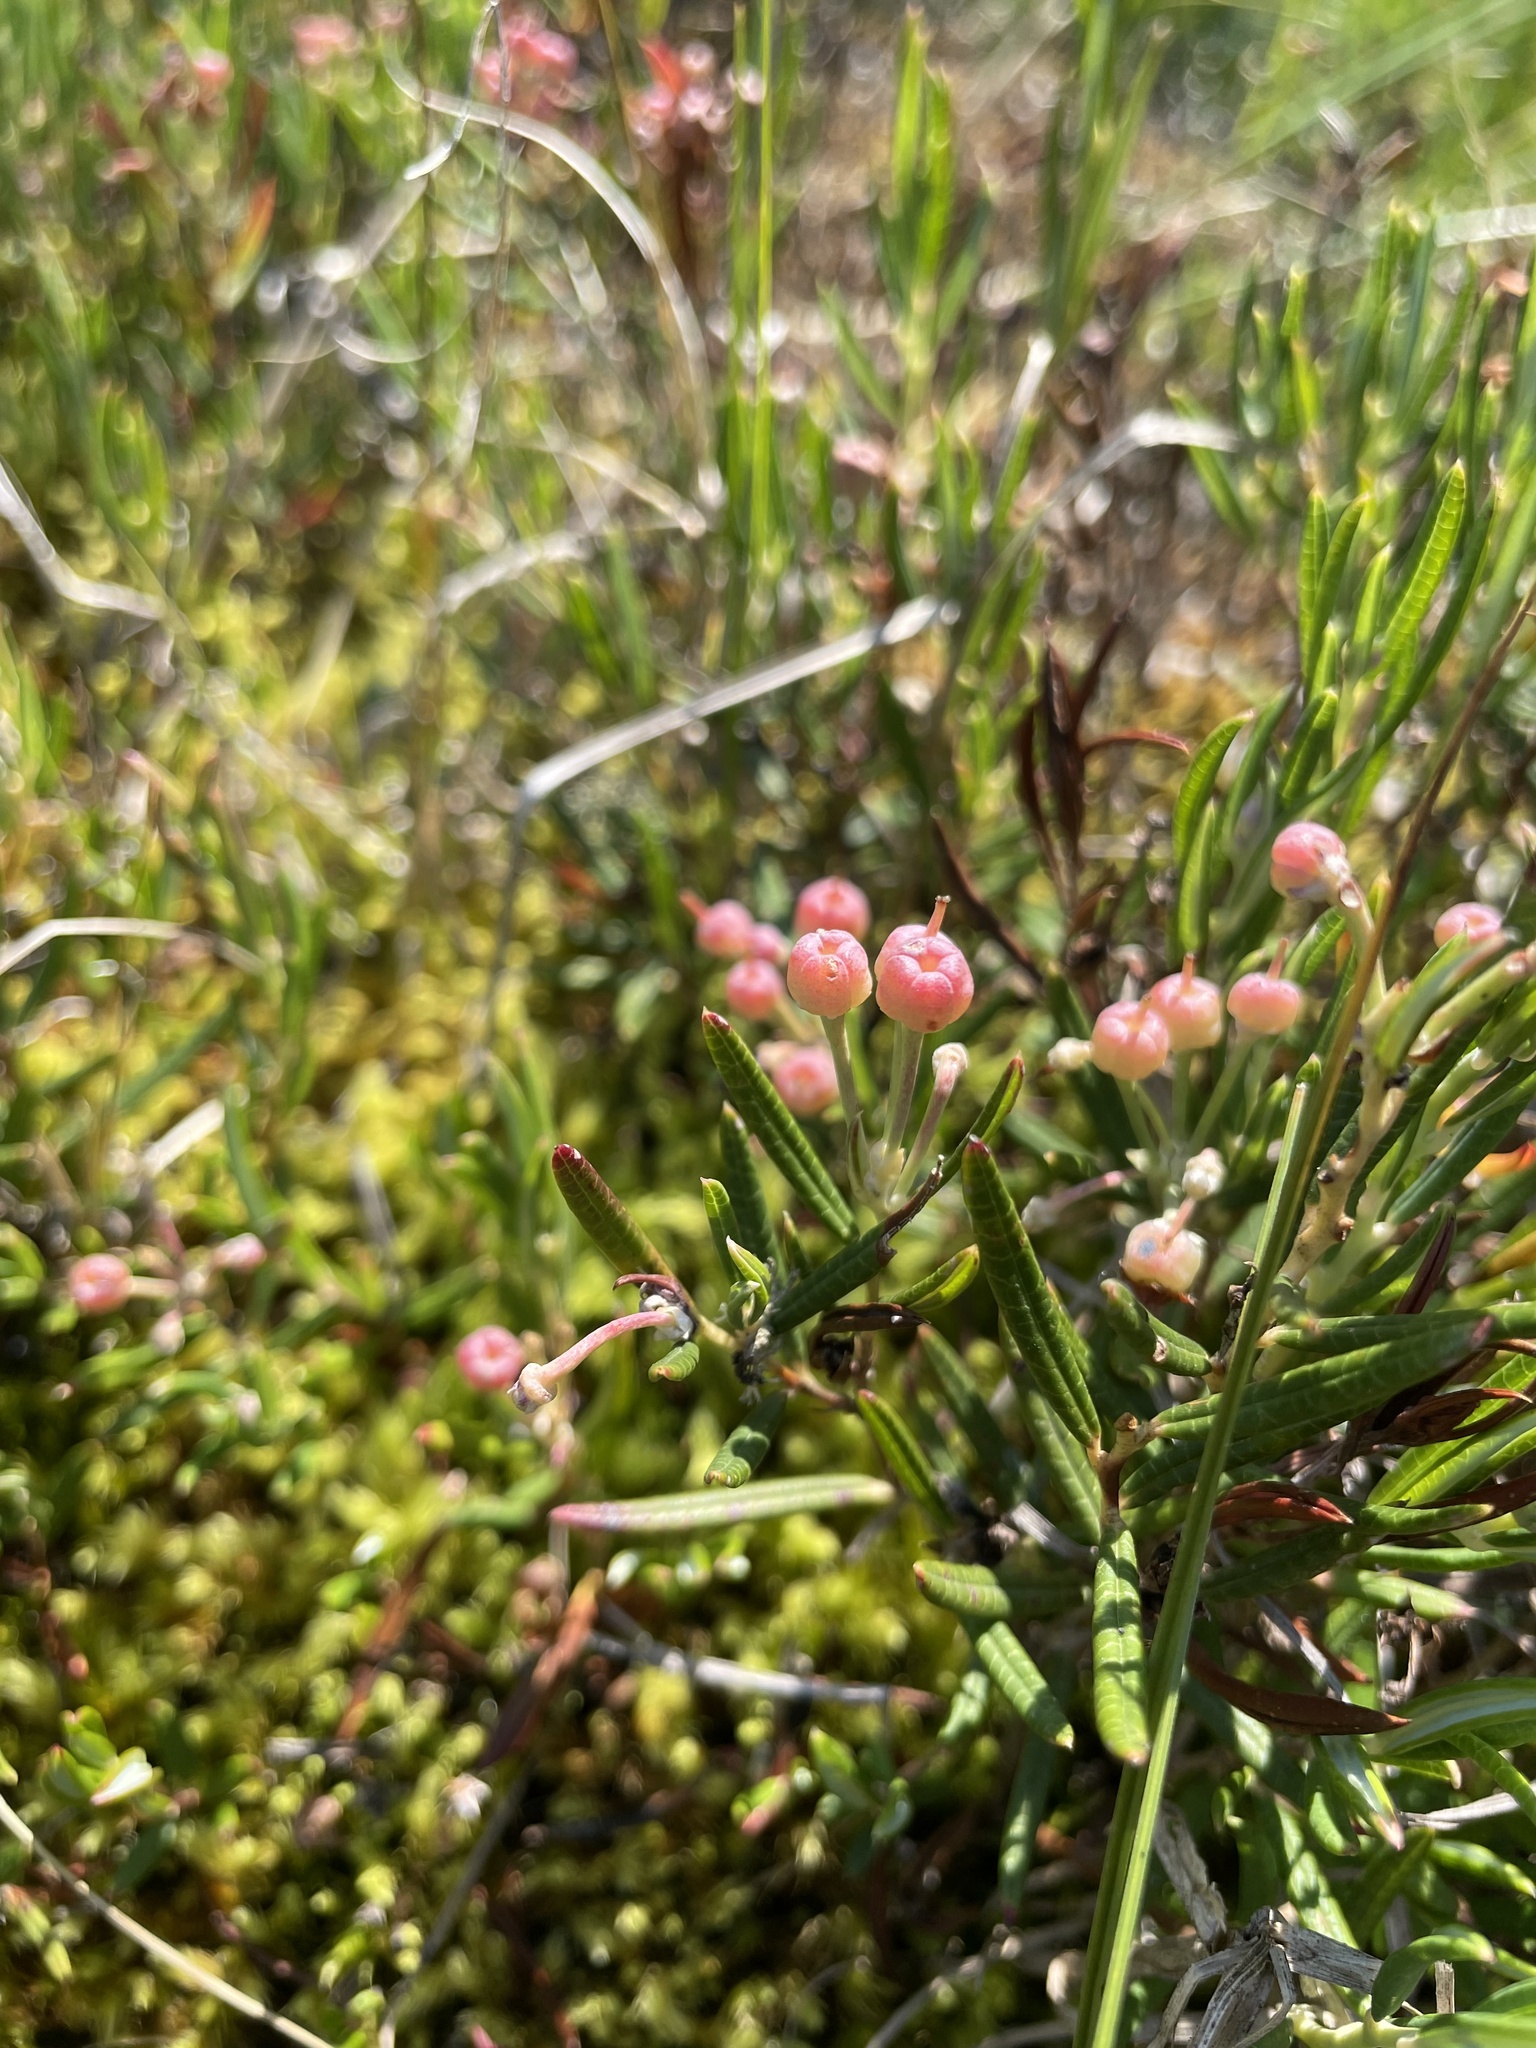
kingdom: Plantae
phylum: Tracheophyta
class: Magnoliopsida
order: Ericales
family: Ericaceae
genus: Andromeda
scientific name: Andromeda polifolia
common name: Bog-rosemary
